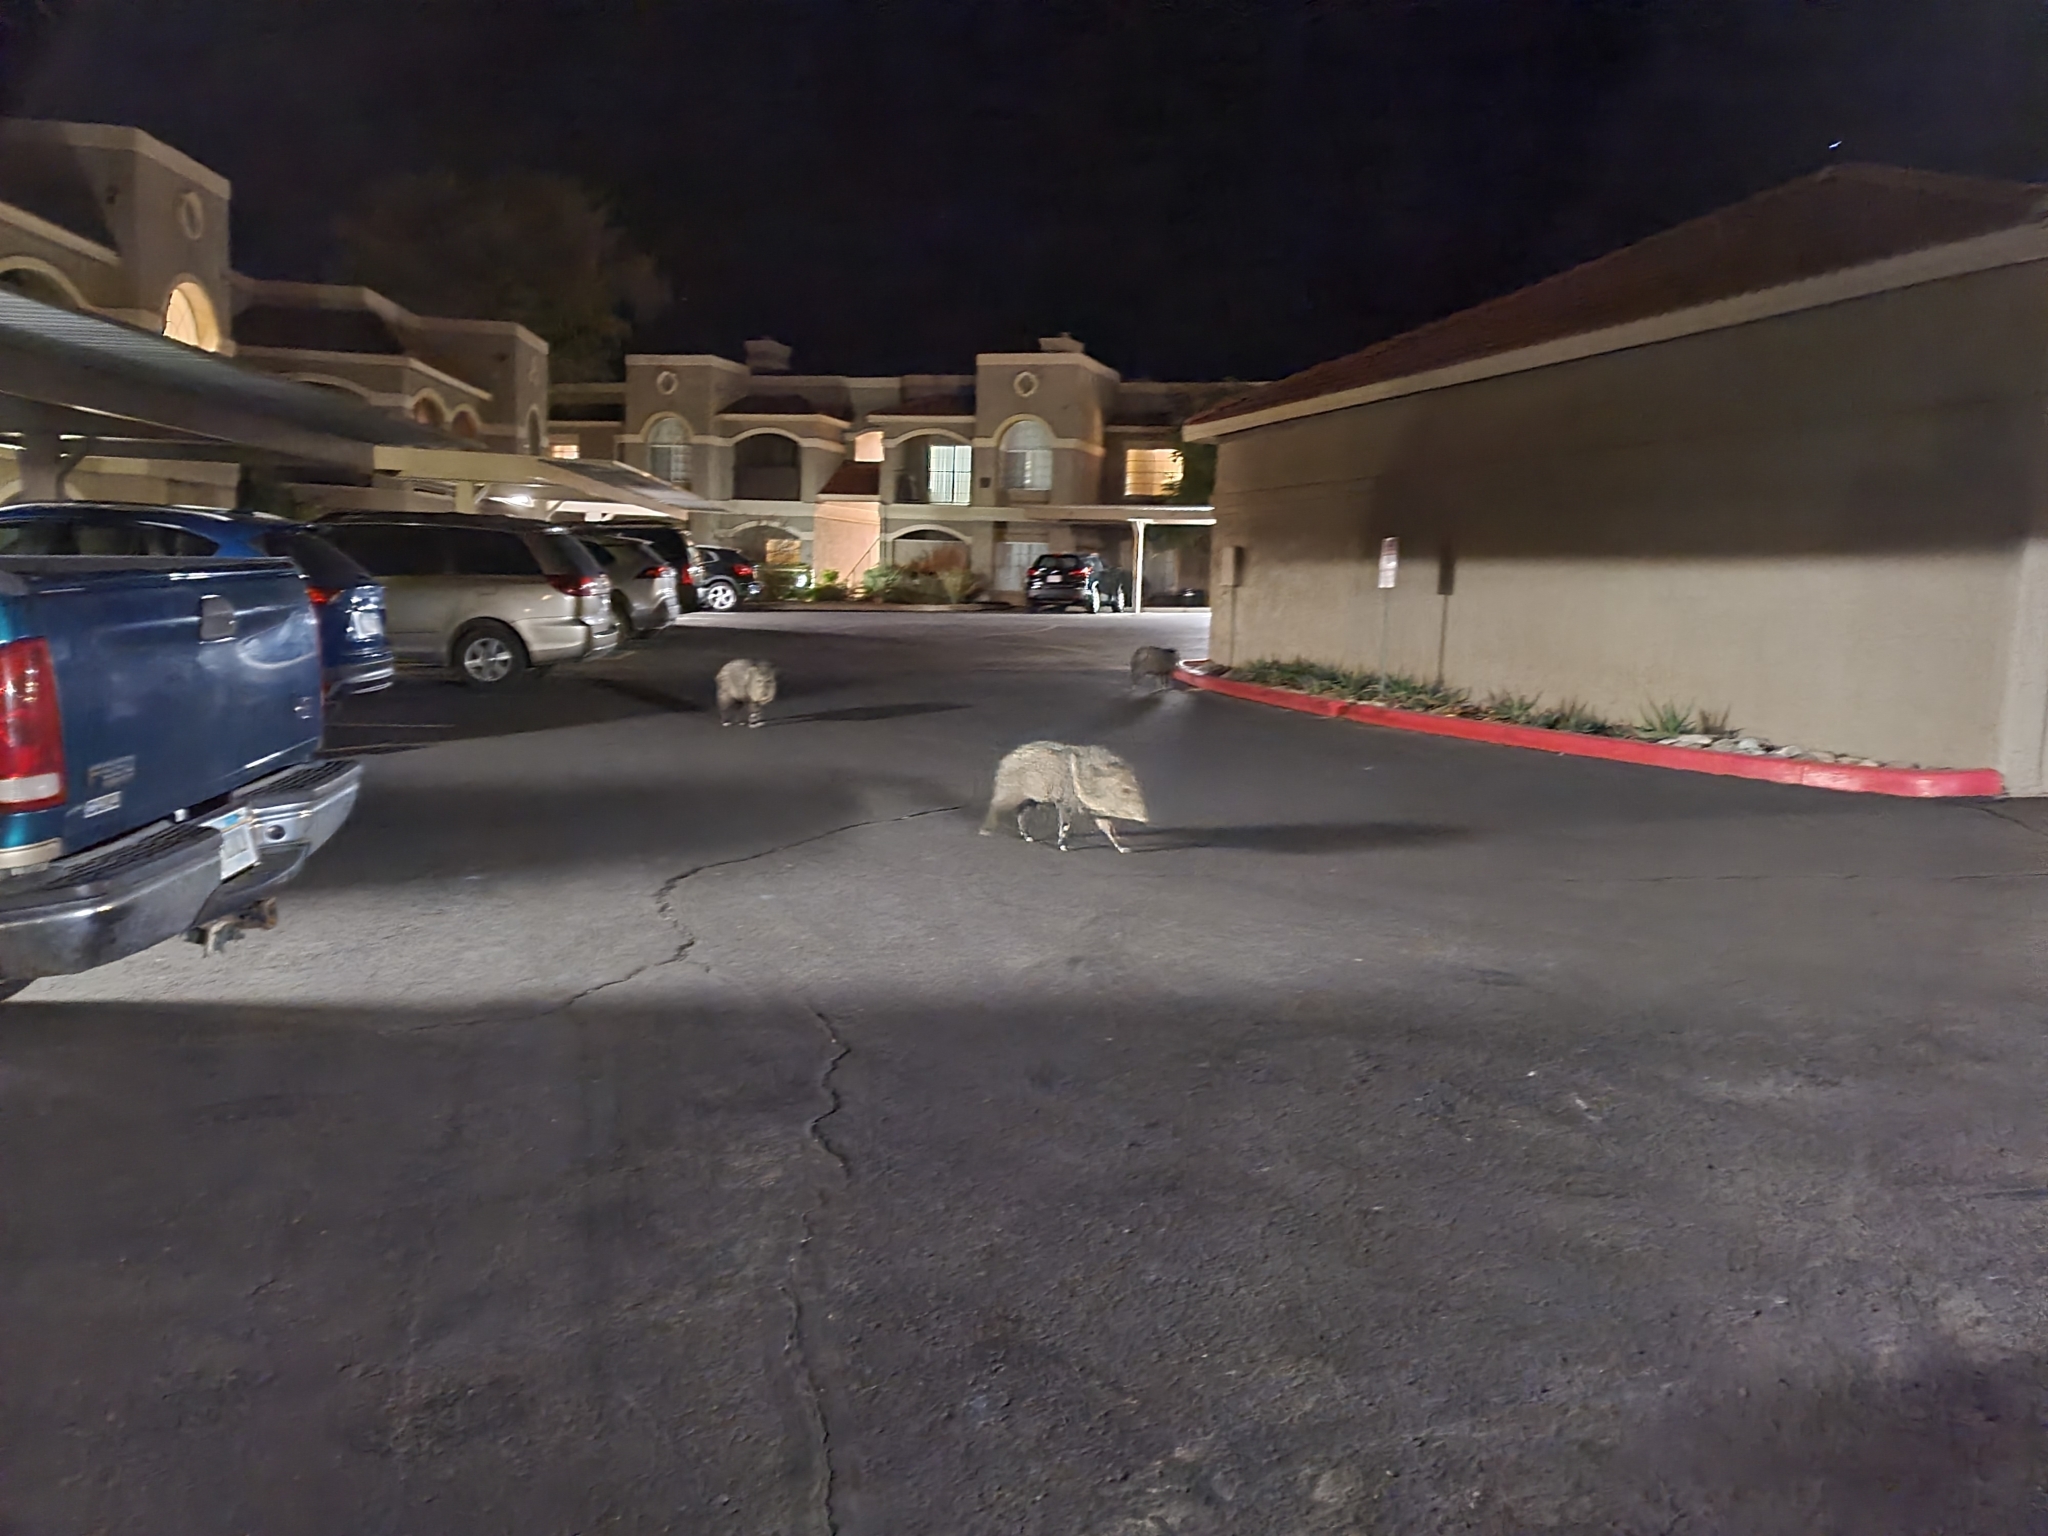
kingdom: Animalia
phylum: Chordata
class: Mammalia
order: Artiodactyla
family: Tayassuidae
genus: Pecari
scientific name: Pecari tajacu
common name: Collared peccary
